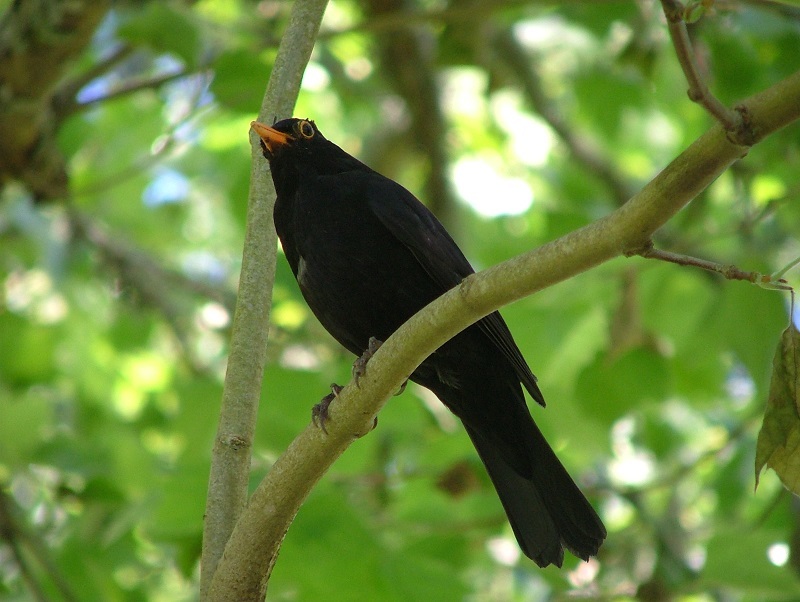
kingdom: Animalia
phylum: Chordata
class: Aves
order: Passeriformes
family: Turdidae
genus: Turdus
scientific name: Turdus merula
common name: Common blackbird
